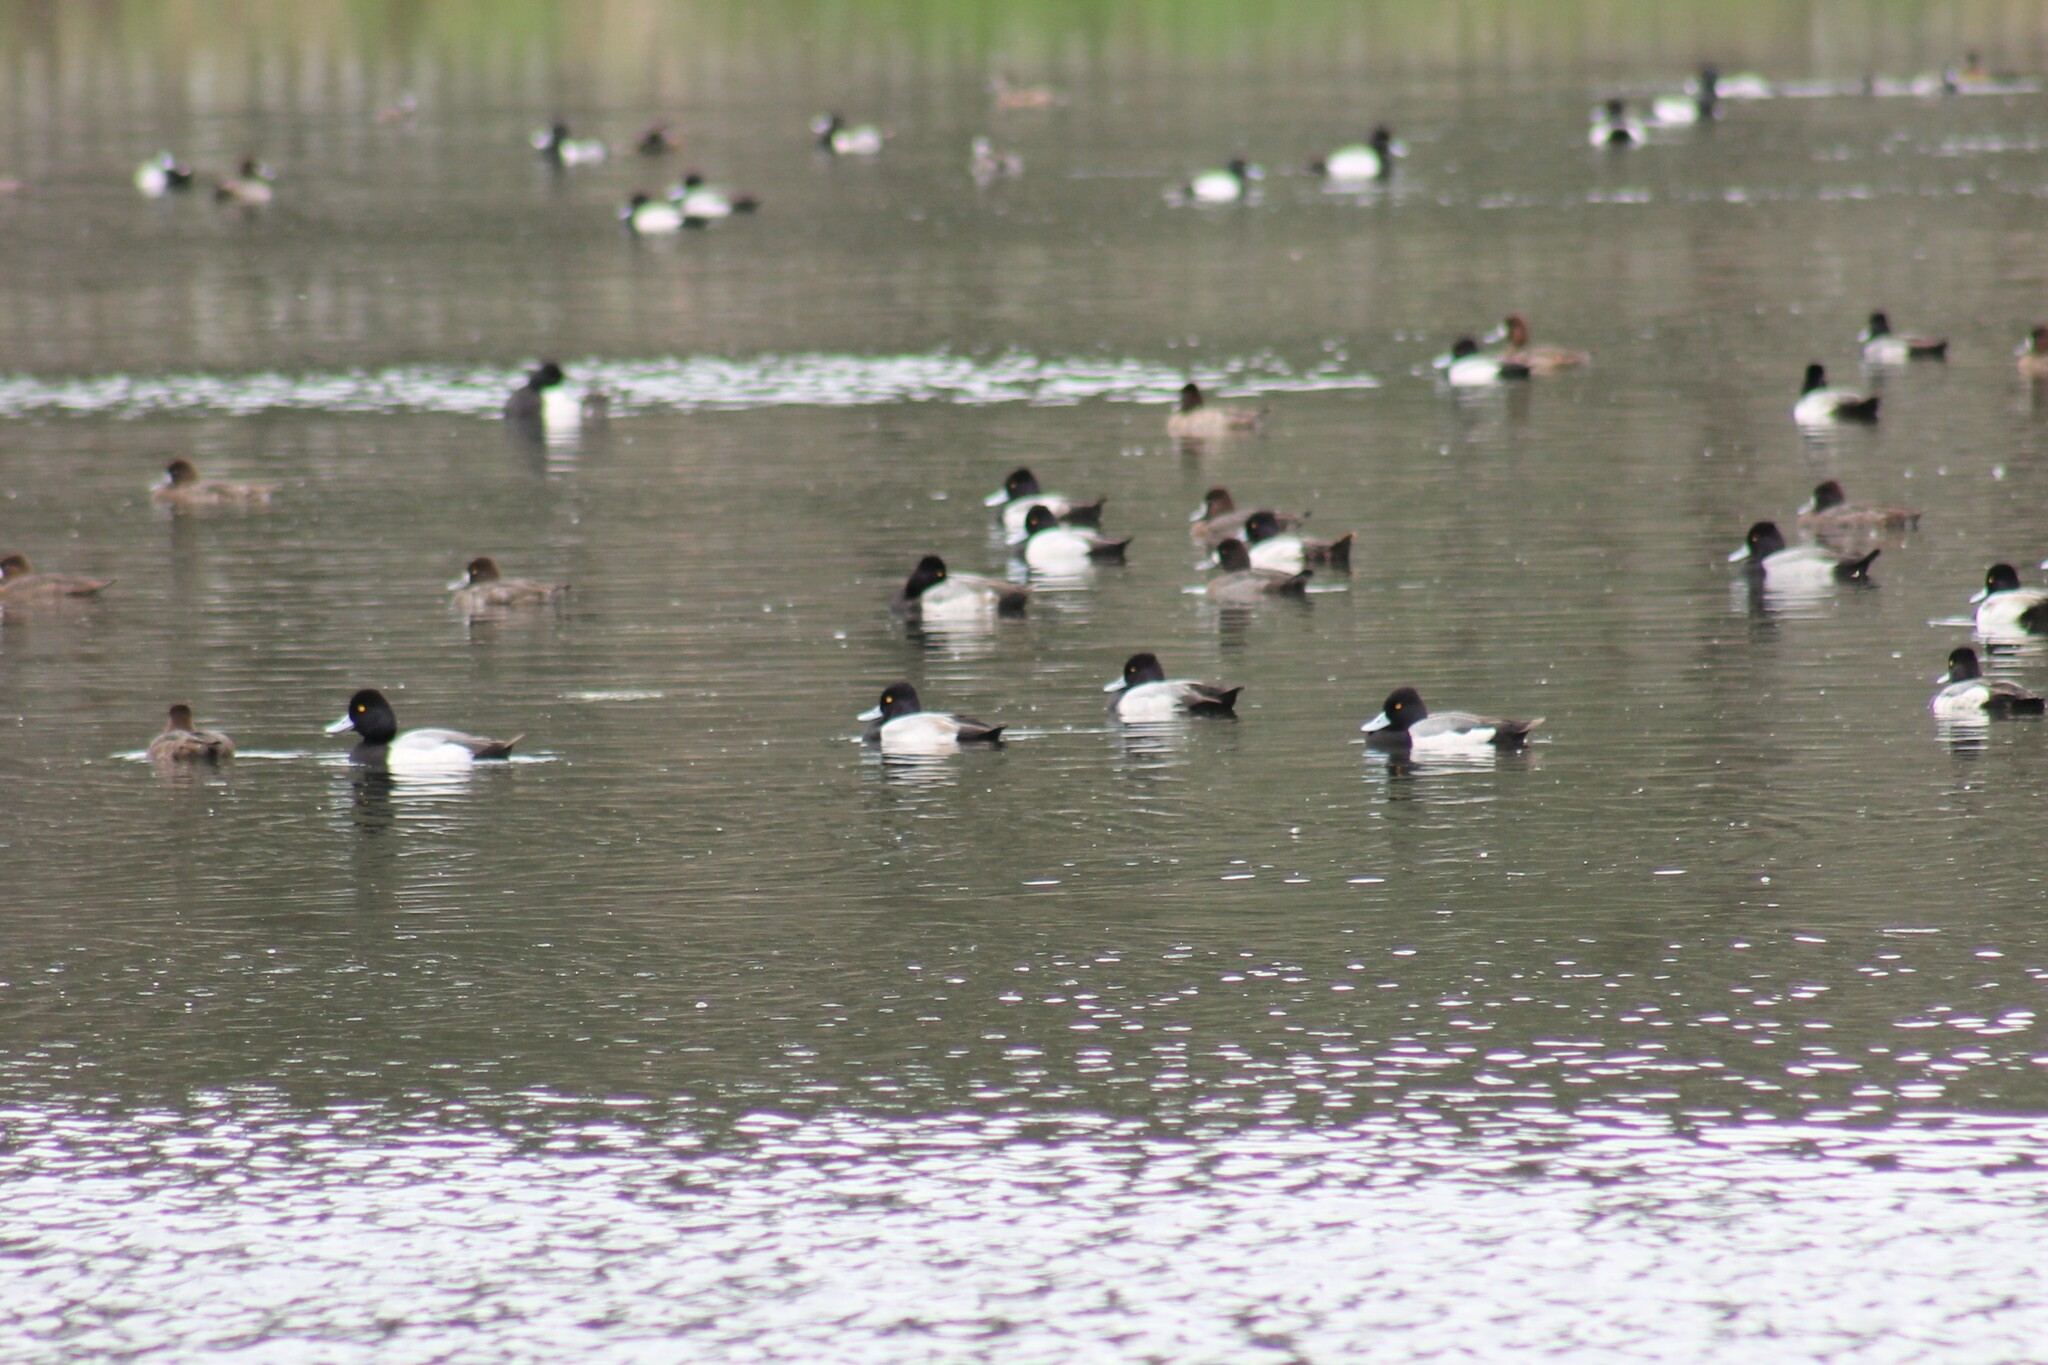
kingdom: Animalia
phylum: Chordata
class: Aves
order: Anseriformes
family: Anatidae
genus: Aythya
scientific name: Aythya affinis
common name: Lesser scaup
